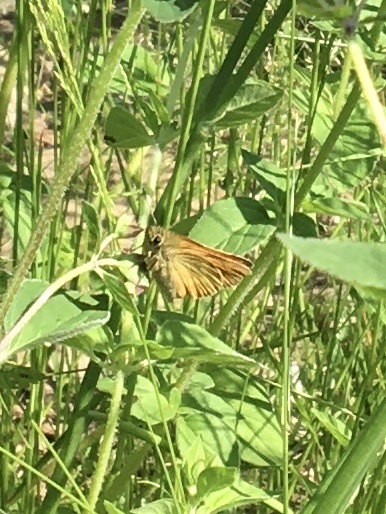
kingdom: Animalia
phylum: Arthropoda
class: Insecta
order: Lepidoptera
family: Hesperiidae
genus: Ochlodes
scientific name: Ochlodes venata
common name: Large skipper
